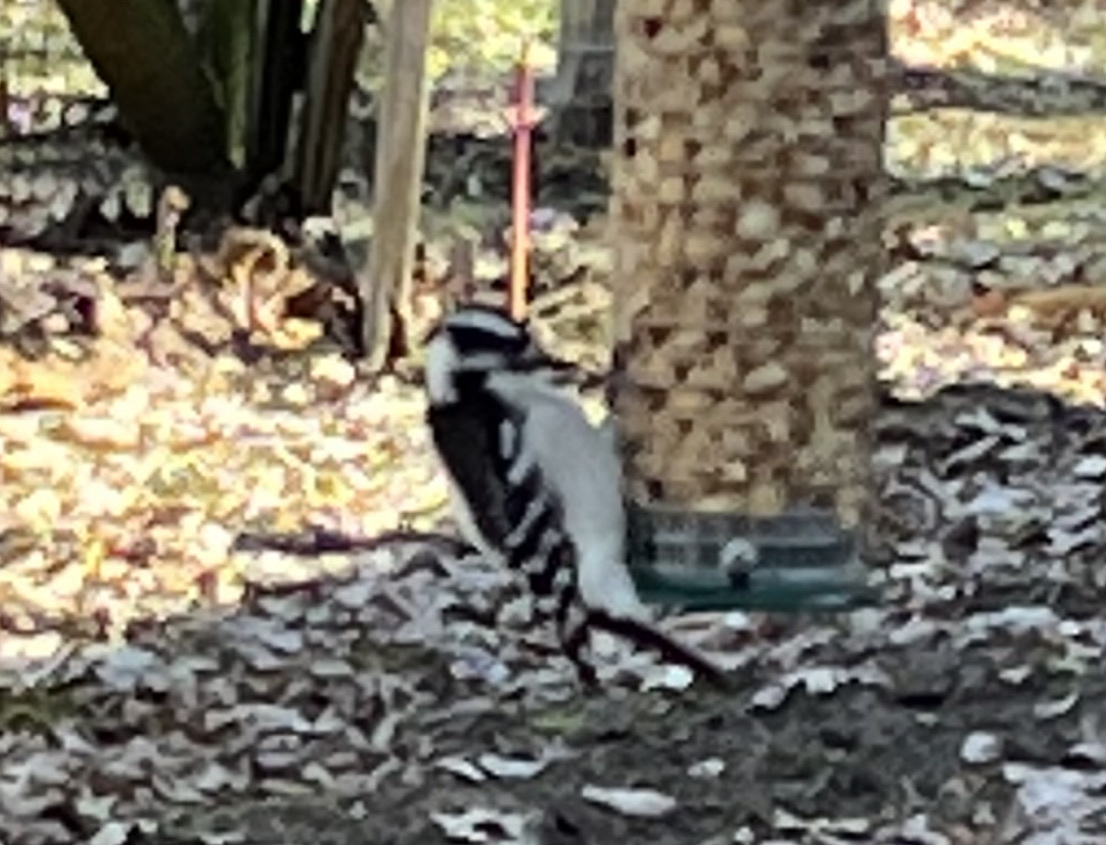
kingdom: Animalia
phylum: Chordata
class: Aves
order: Piciformes
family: Picidae
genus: Dryobates
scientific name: Dryobates pubescens
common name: Downy woodpecker
